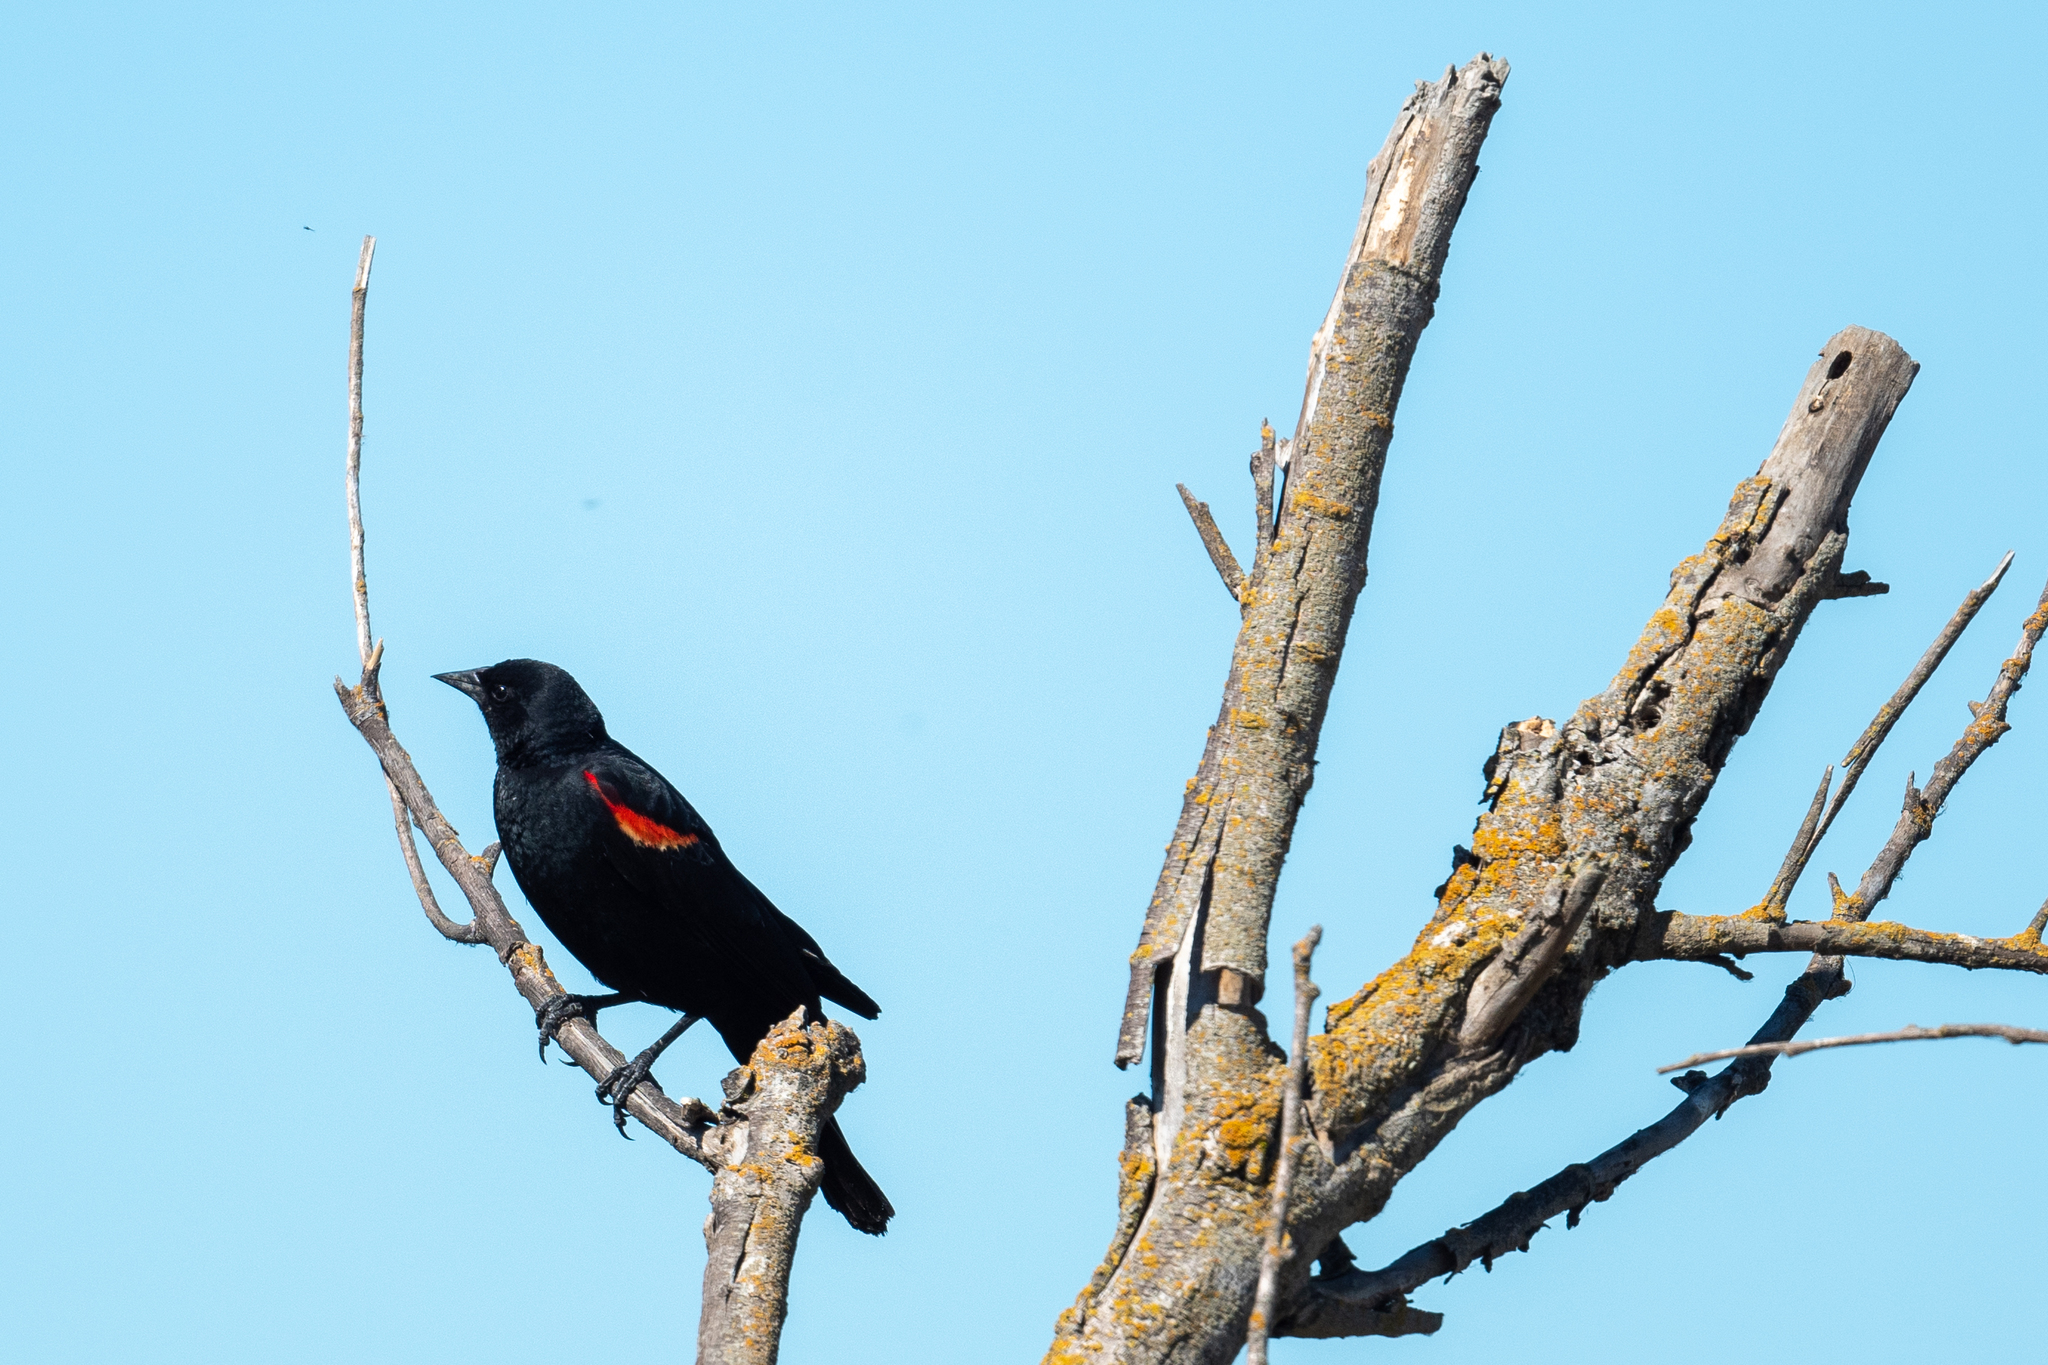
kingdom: Animalia
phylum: Chordata
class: Aves
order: Passeriformes
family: Icteridae
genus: Agelaius
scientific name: Agelaius phoeniceus
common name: Red-winged blackbird
